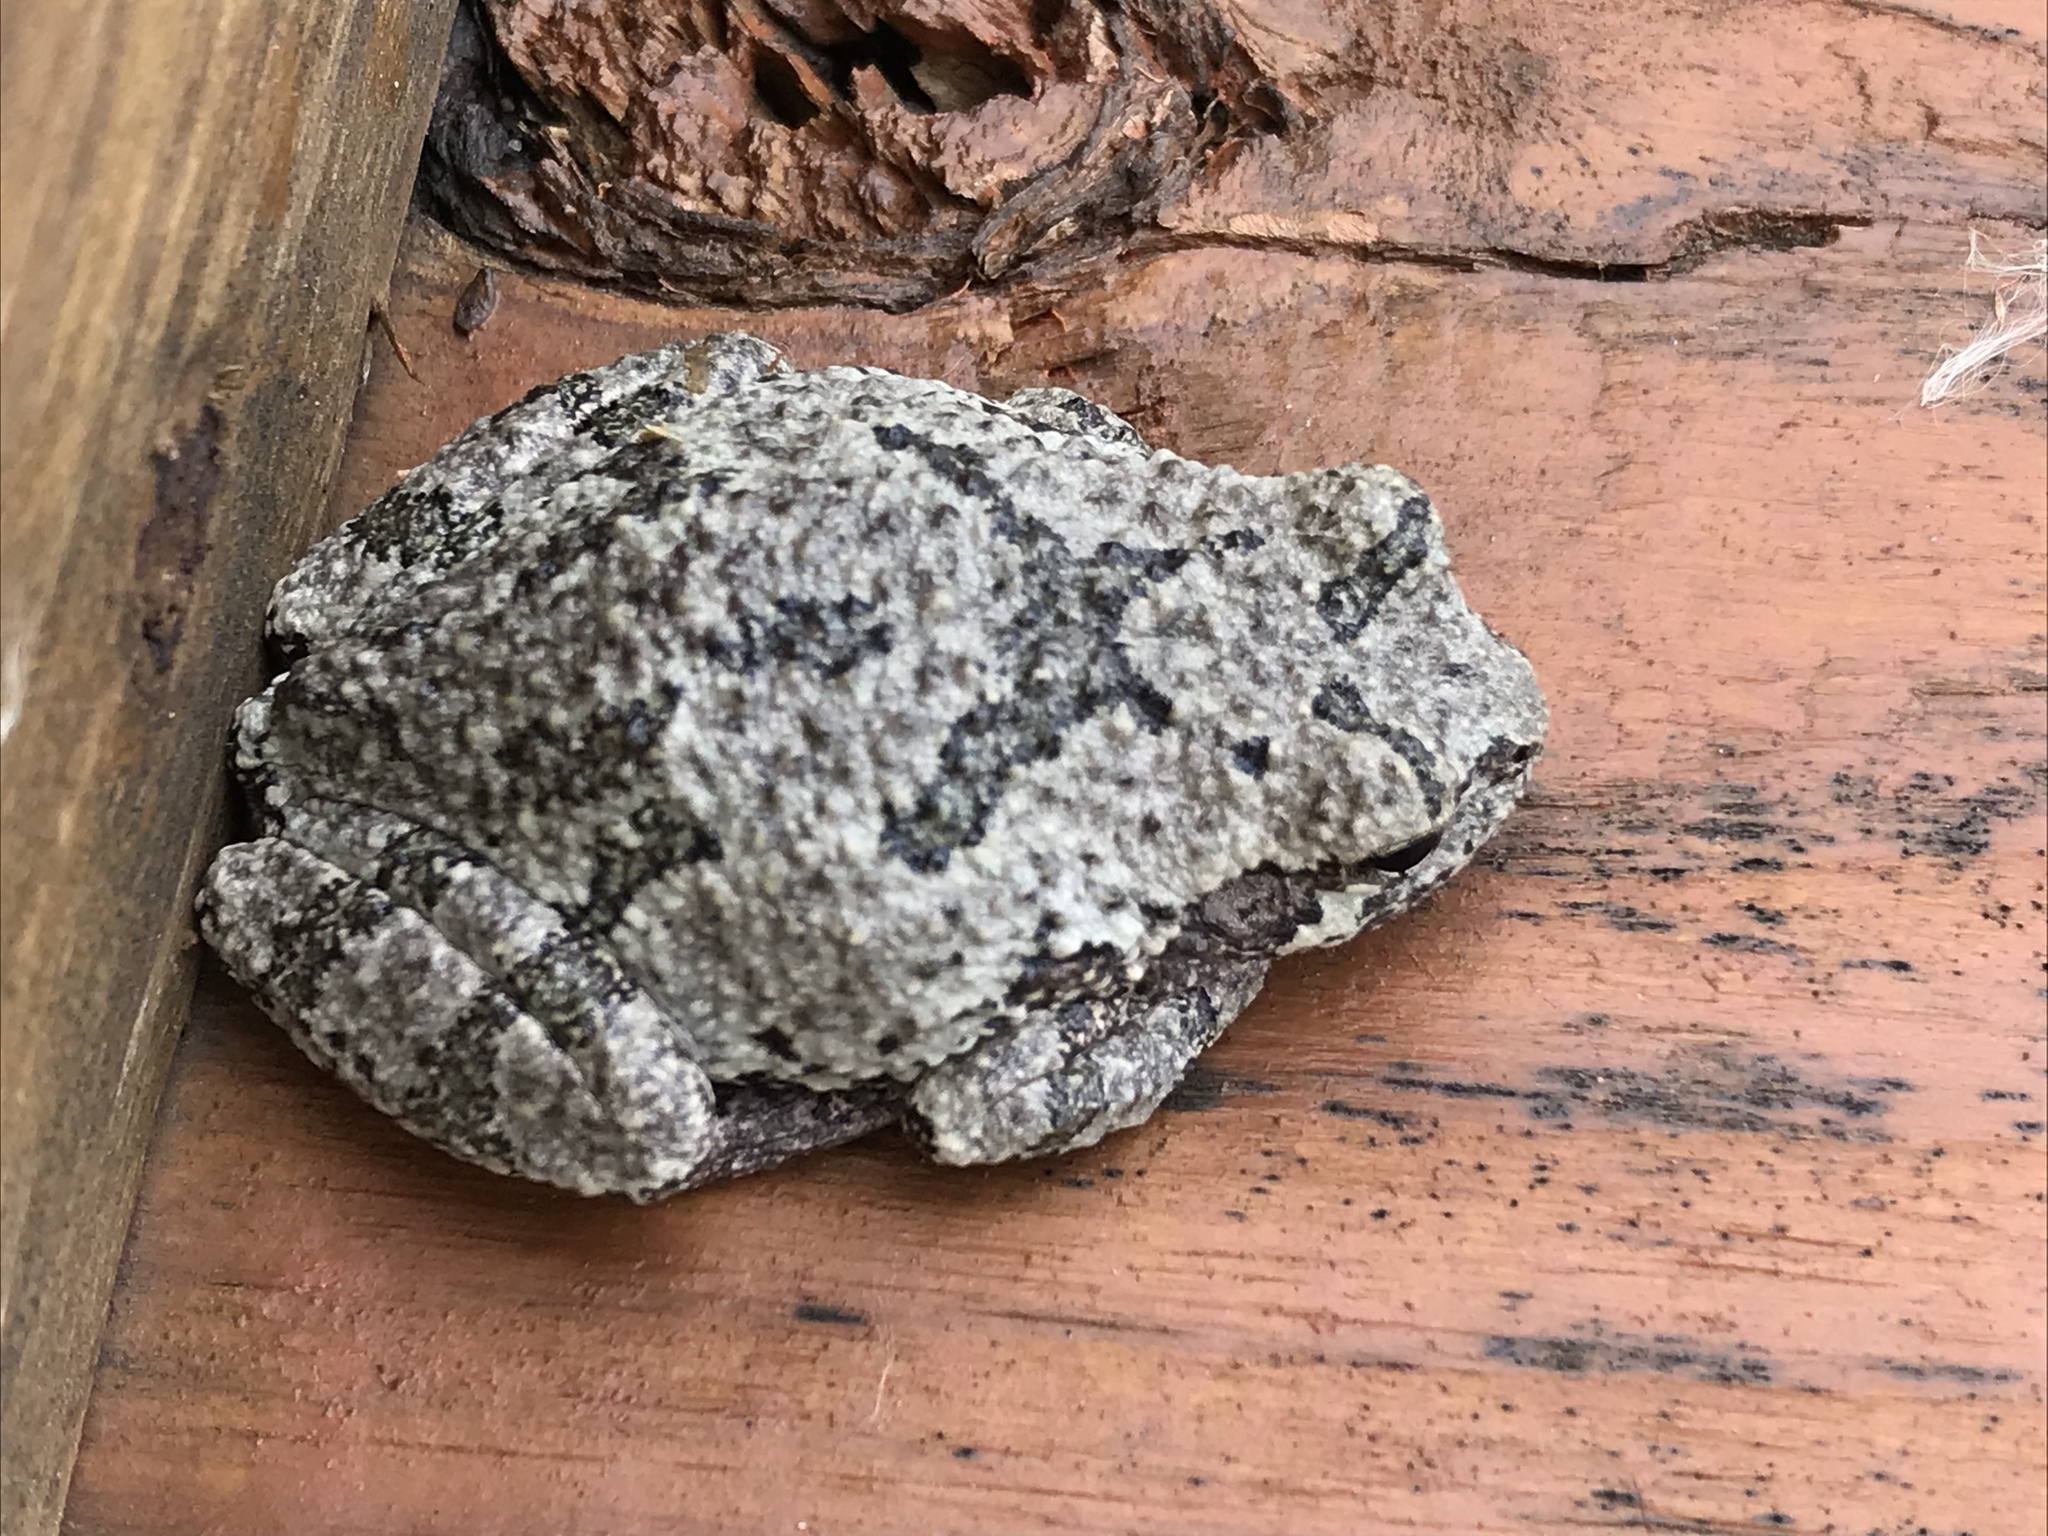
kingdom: Animalia
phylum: Chordata
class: Amphibia
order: Anura
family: Hylidae
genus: Dryophytes
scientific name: Dryophytes versicolor
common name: Gray treefrog
